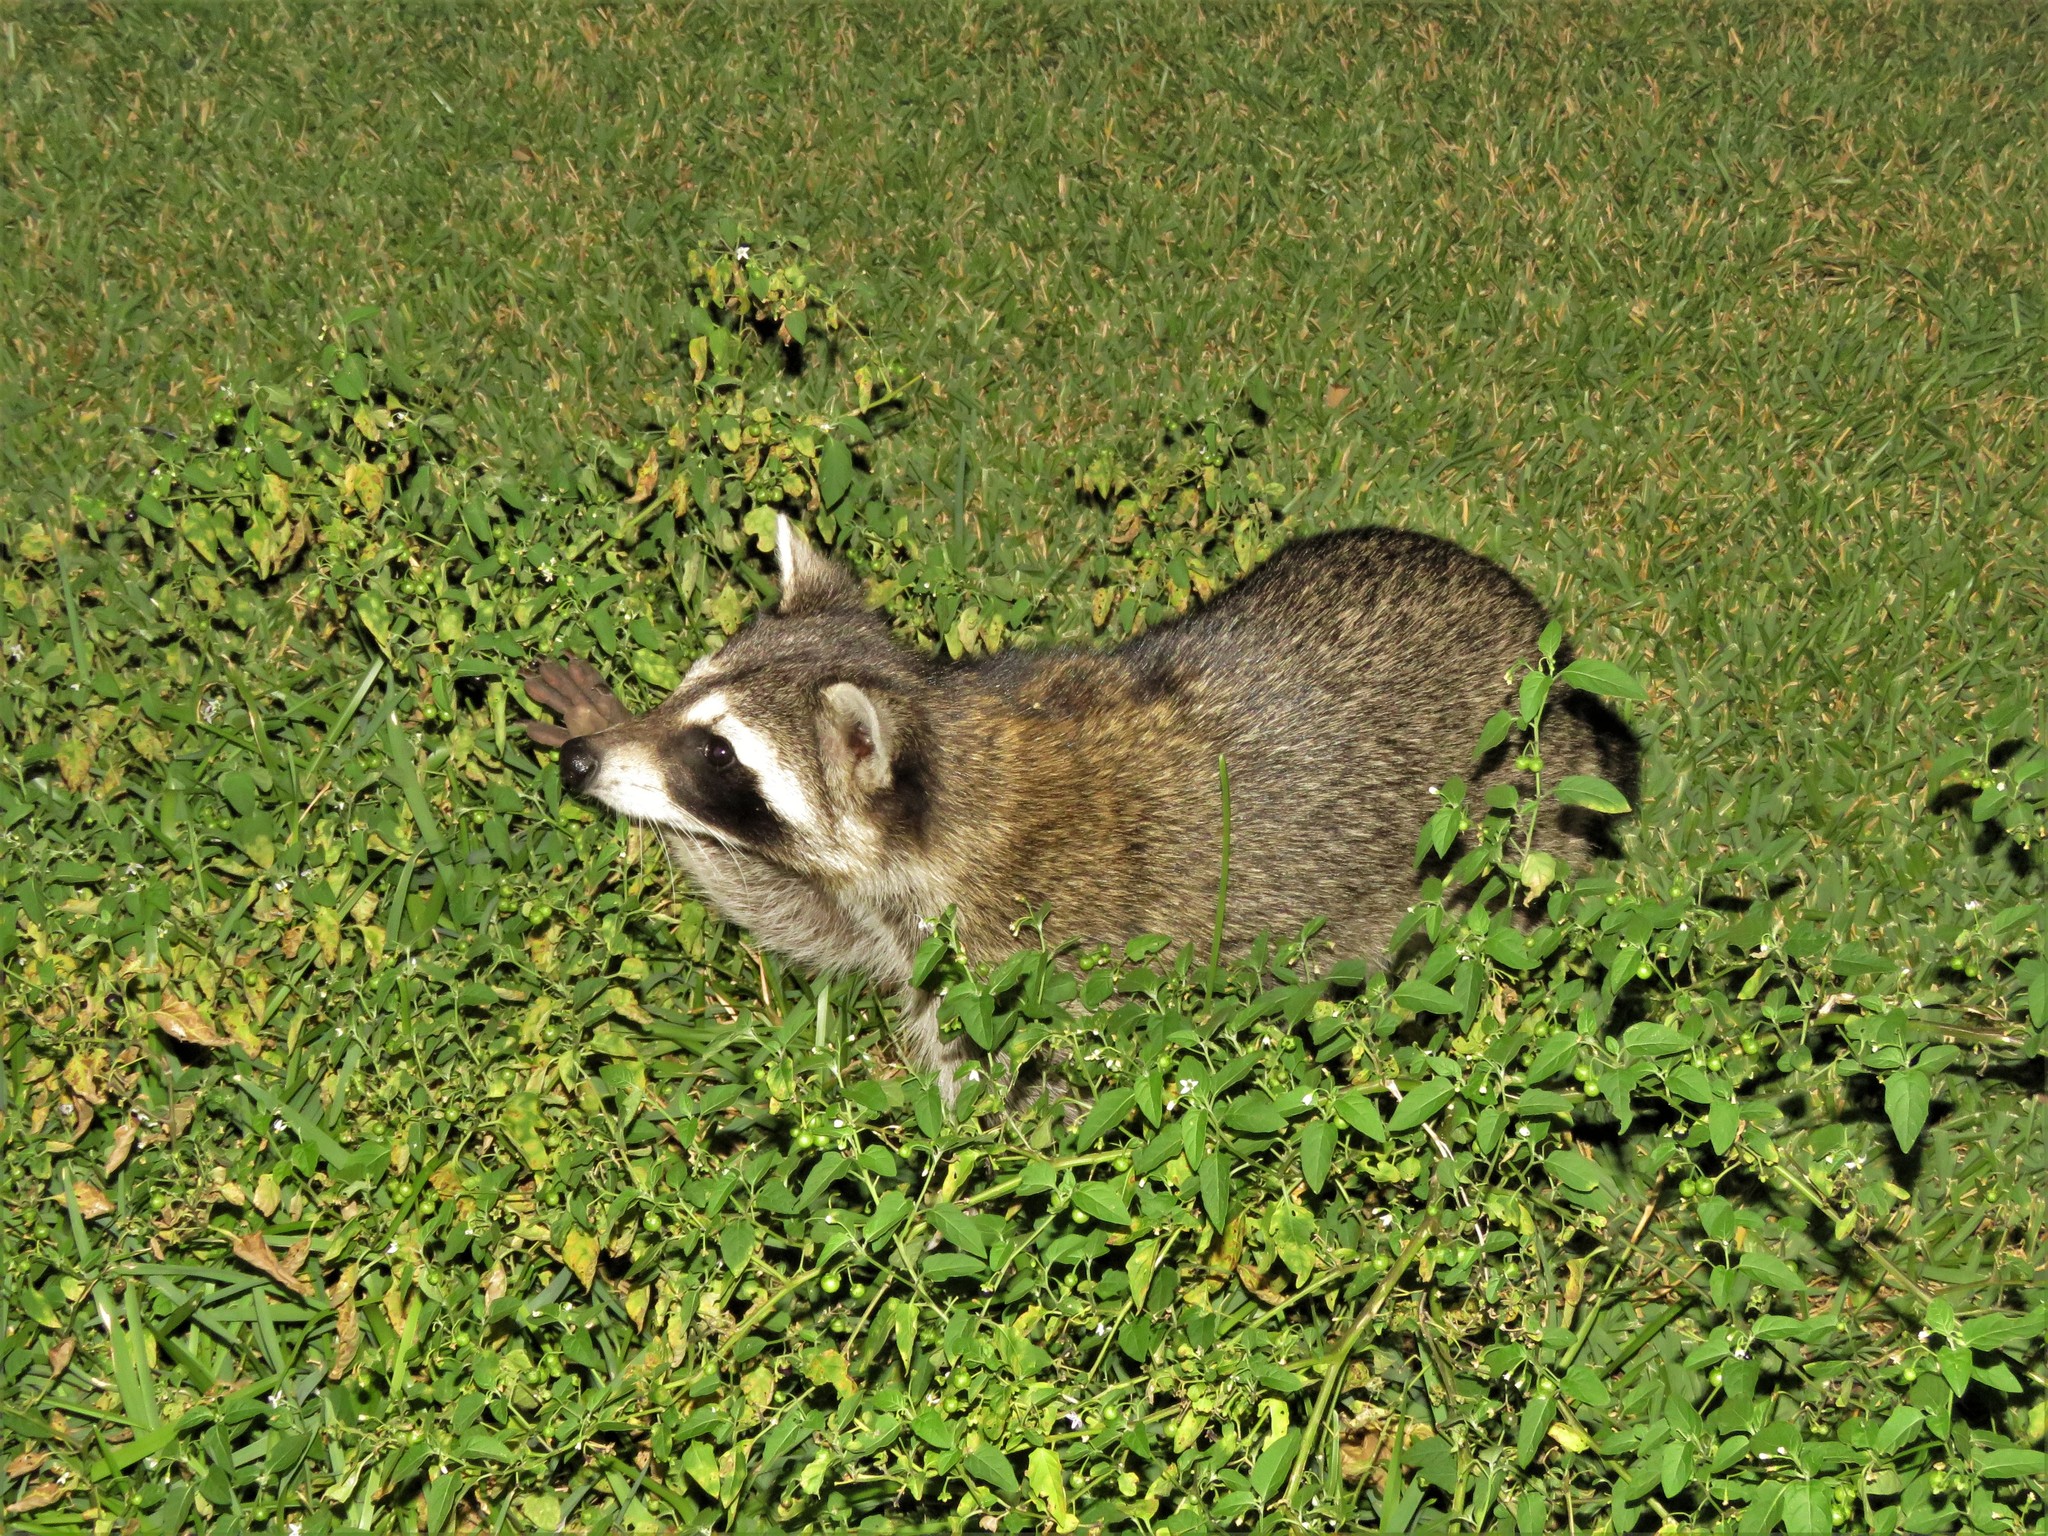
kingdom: Animalia
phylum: Chordata
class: Mammalia
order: Carnivora
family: Procyonidae
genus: Procyon
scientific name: Procyon lotor
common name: Raccoon
